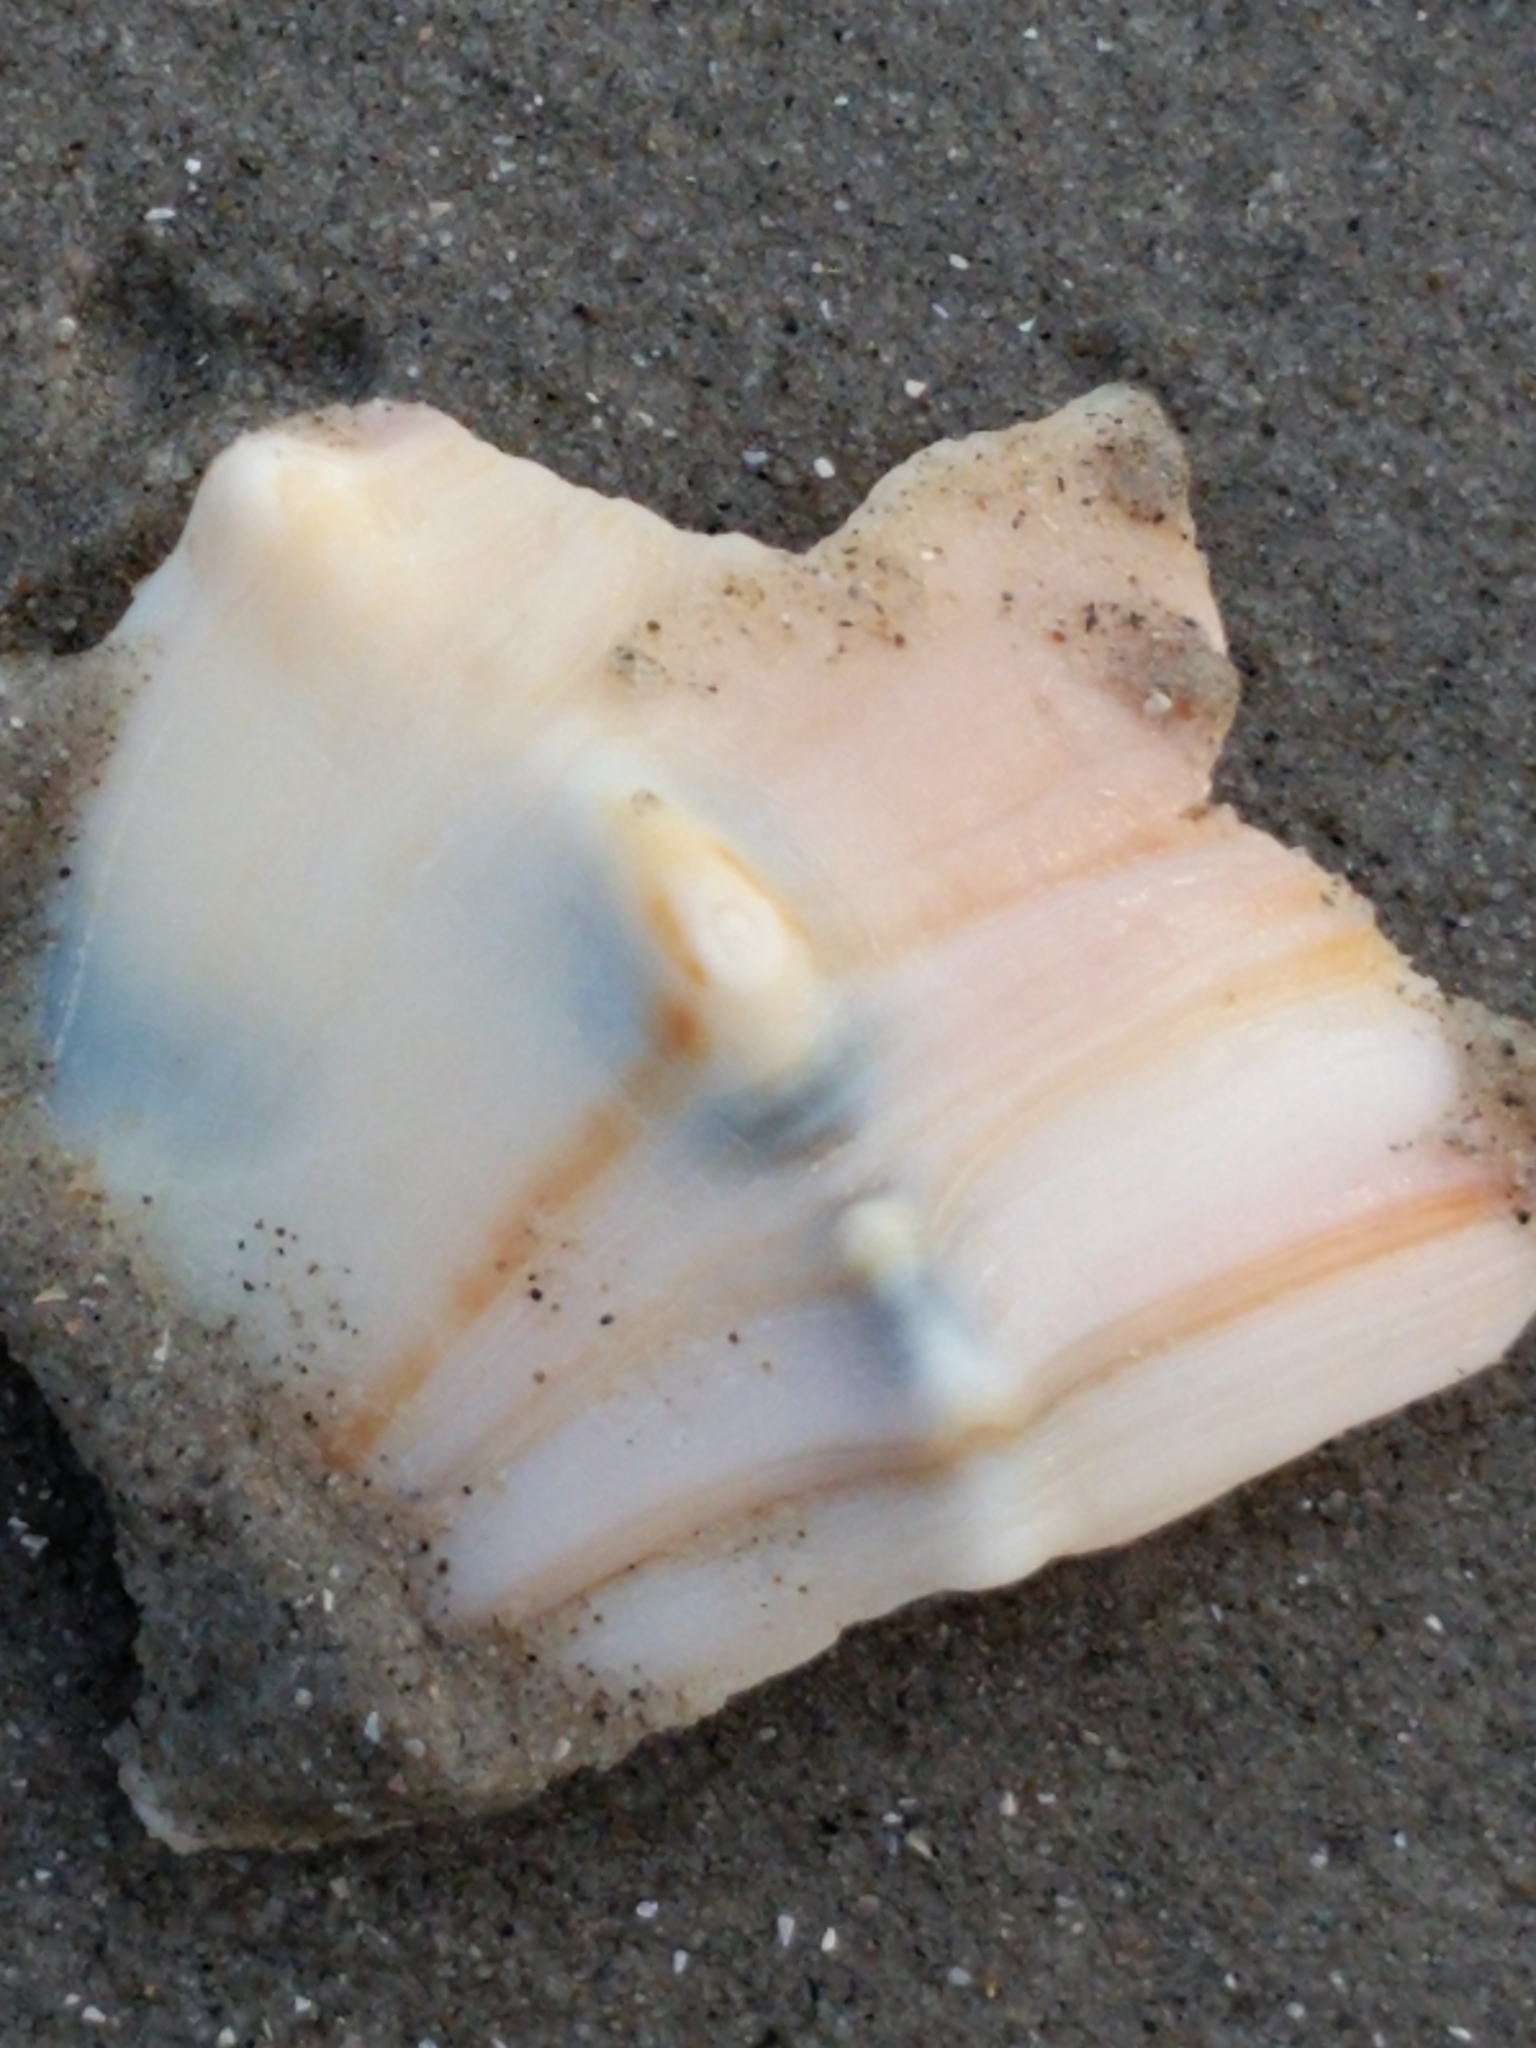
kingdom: Animalia
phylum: Mollusca
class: Gastropoda
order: Neogastropoda
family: Busyconidae
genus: Busycon
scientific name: Busycon carica
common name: Knobbed whelk
